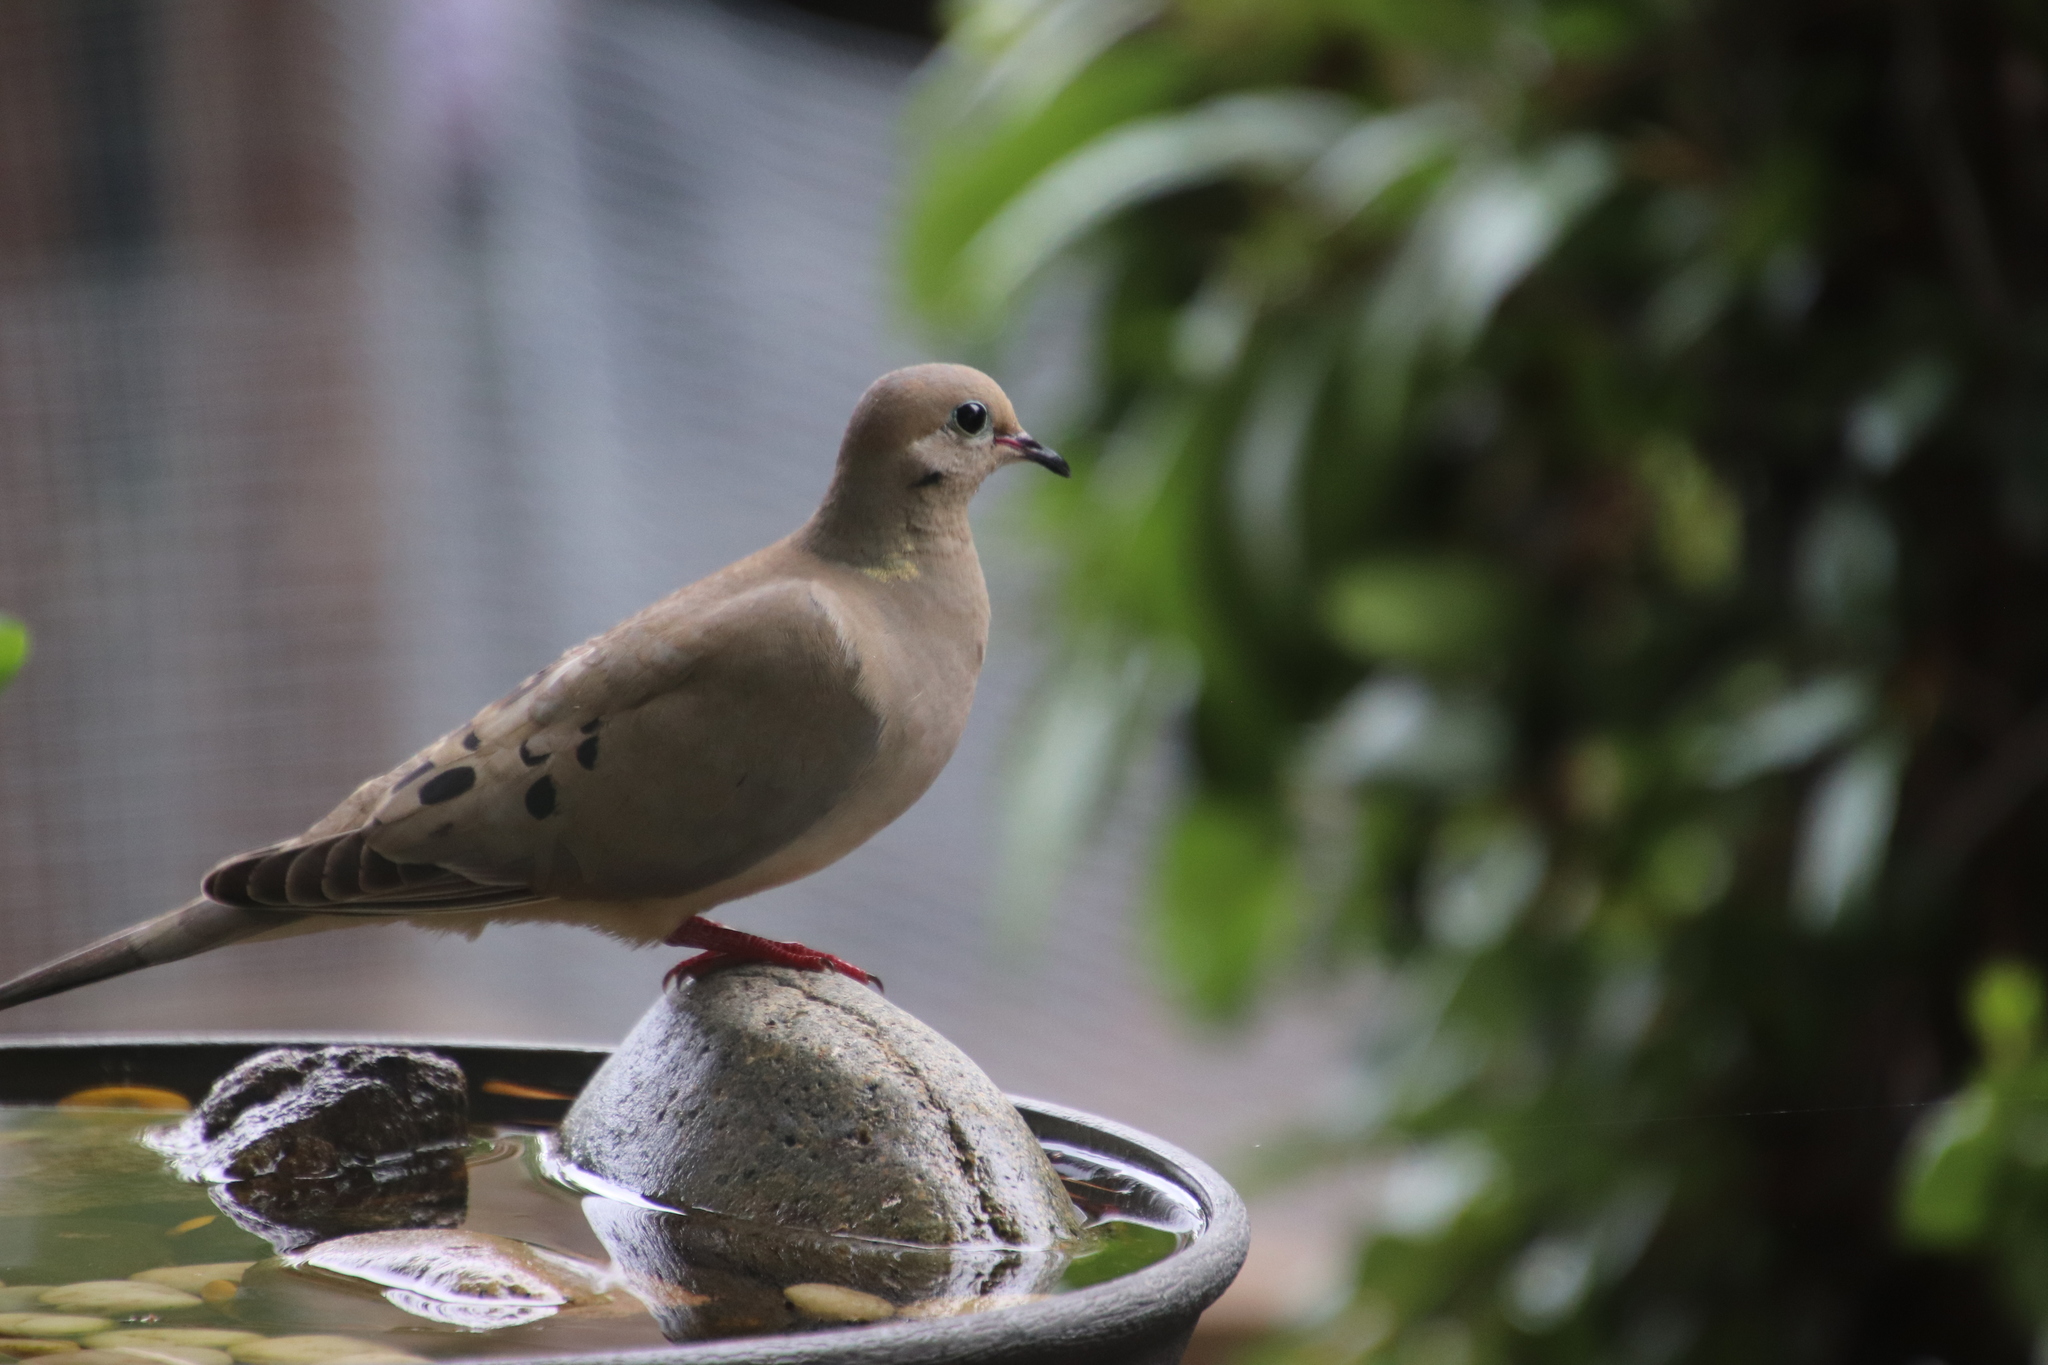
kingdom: Animalia
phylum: Chordata
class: Aves
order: Columbiformes
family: Columbidae
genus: Zenaida
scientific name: Zenaida macroura
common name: Mourning dove
